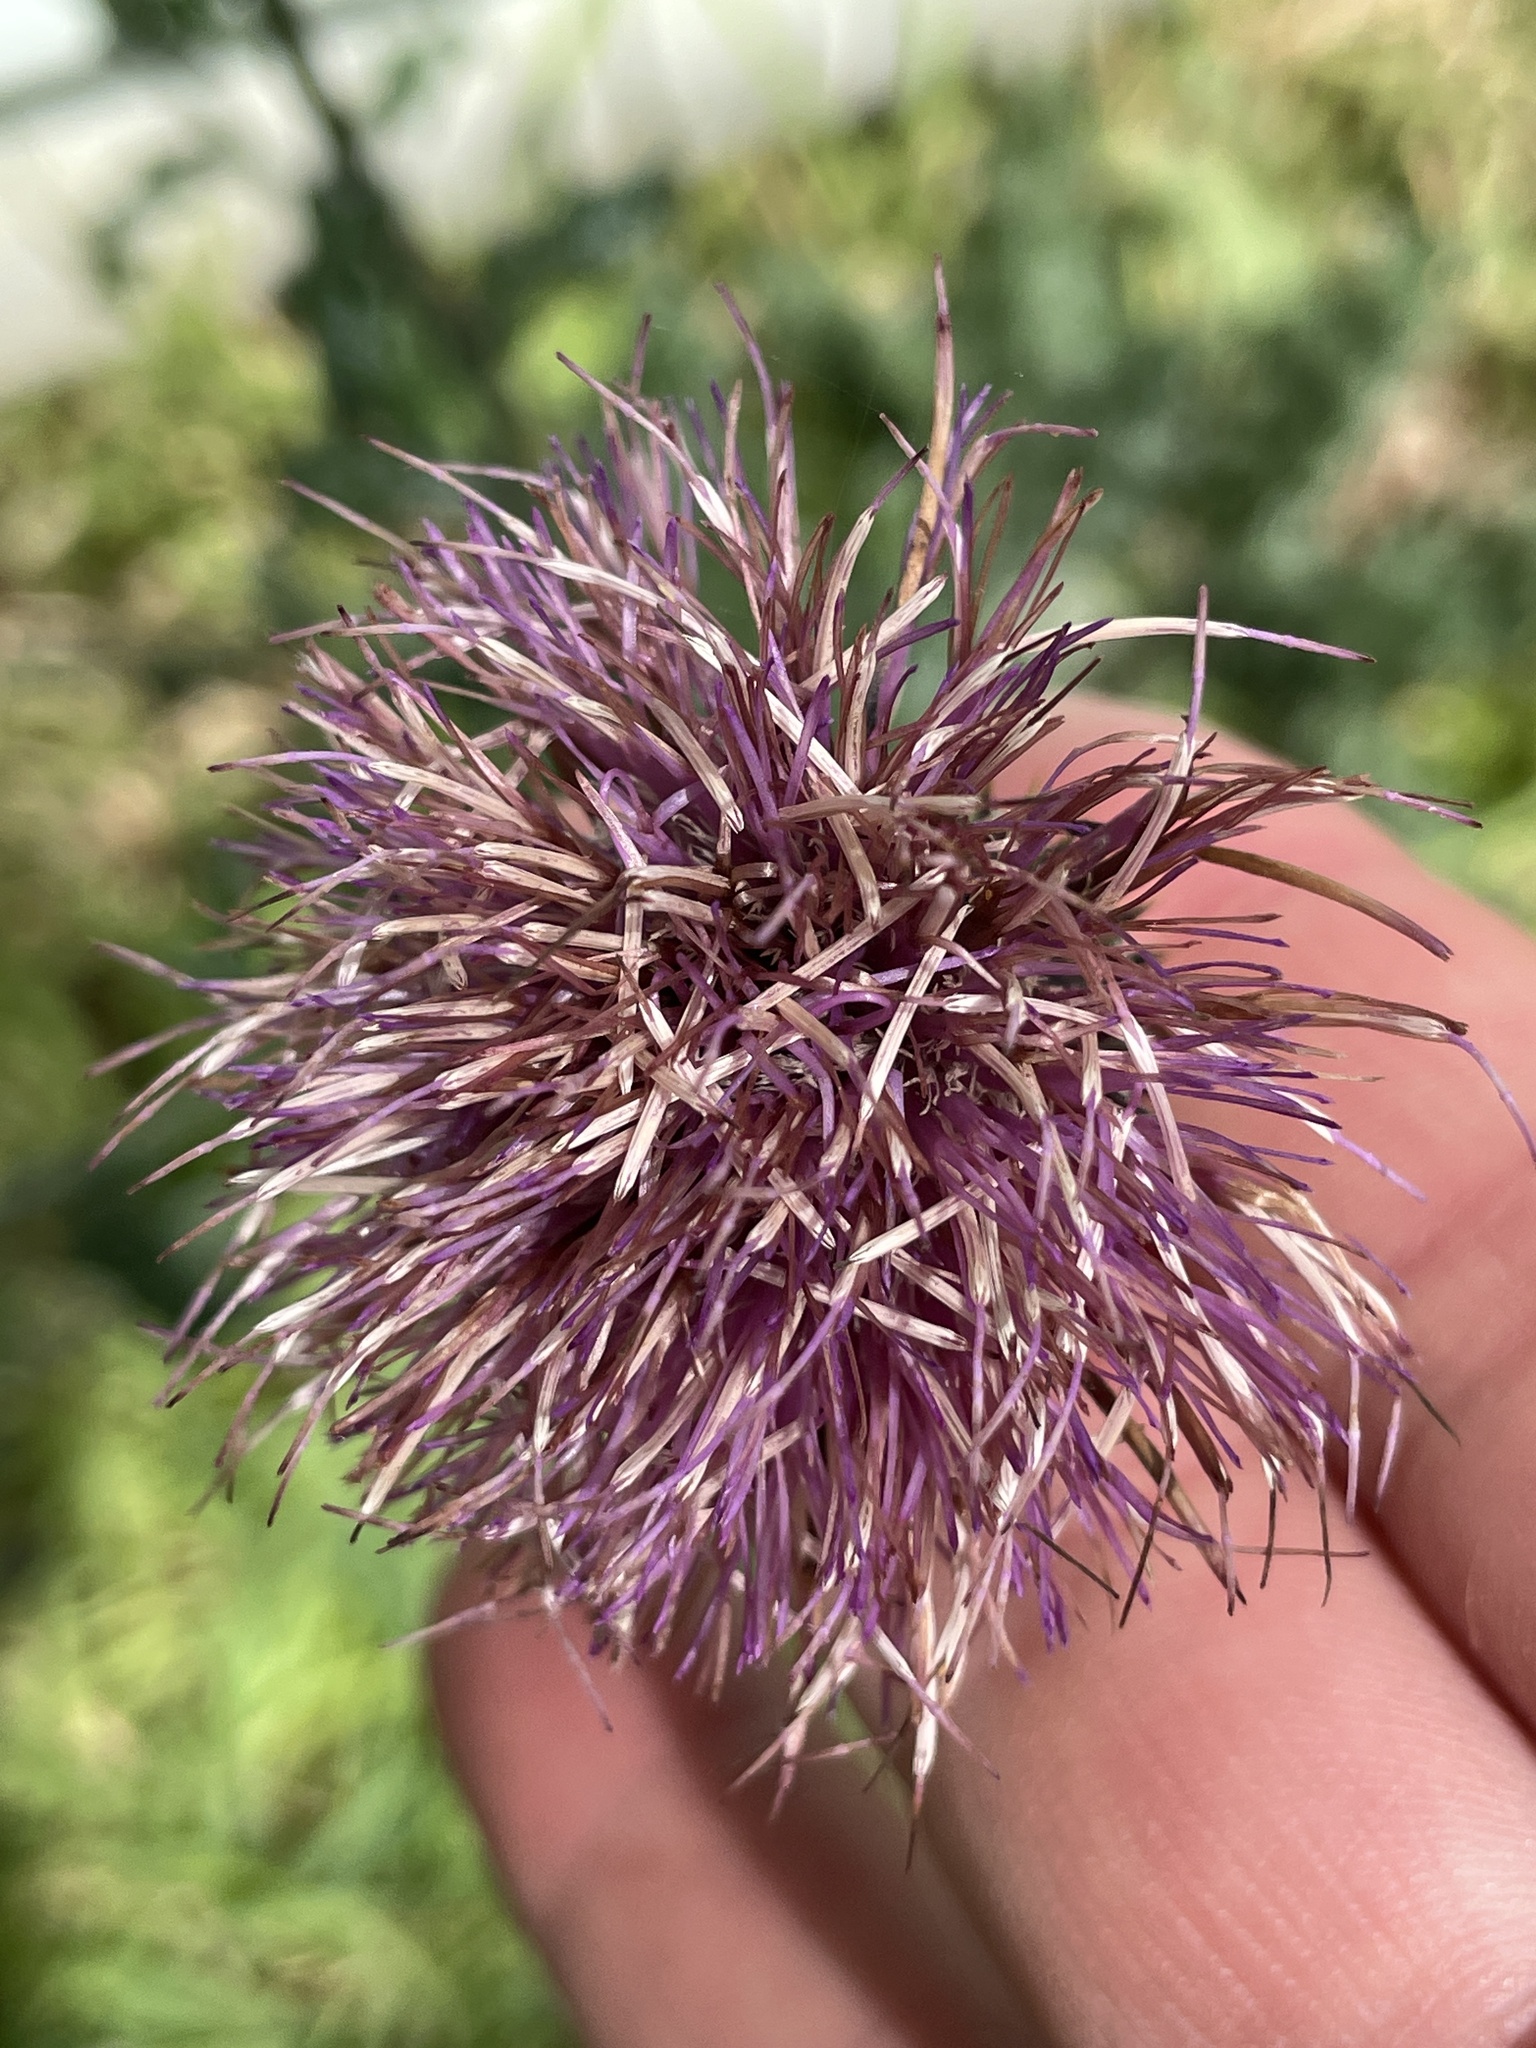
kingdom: Plantae
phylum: Tracheophyta
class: Magnoliopsida
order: Asterales
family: Asteraceae
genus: Cirsium
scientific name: Cirsium texanum
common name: Texas purple thistle
